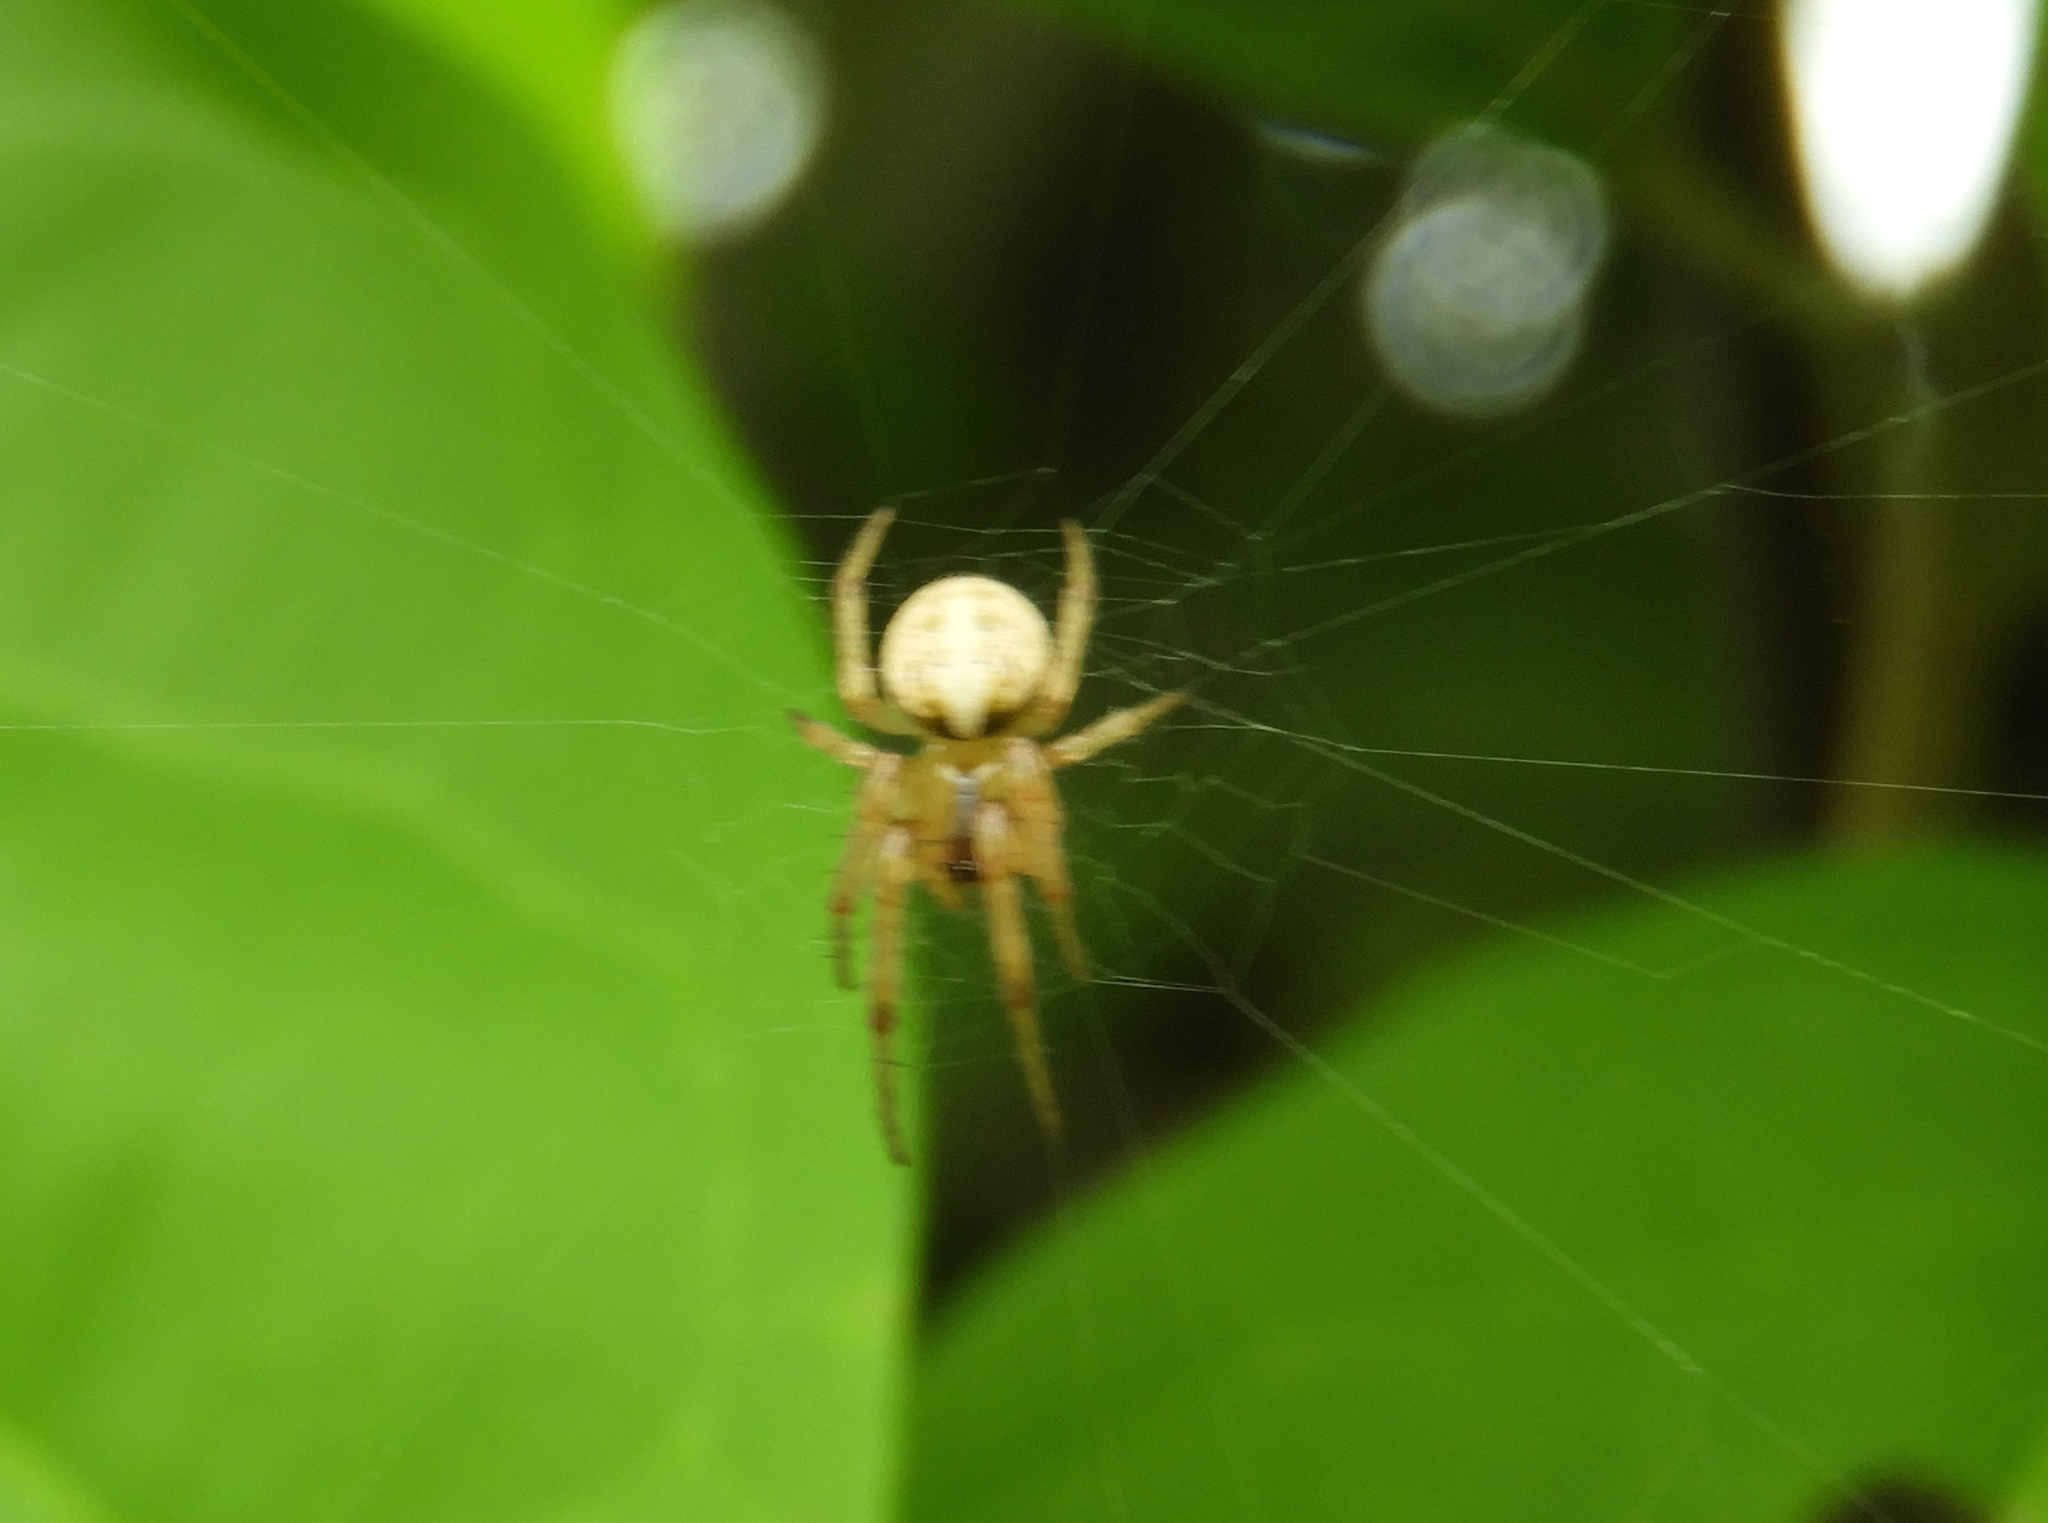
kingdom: Animalia
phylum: Arthropoda
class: Arachnida
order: Araneae
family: Araneidae
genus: Metazygia
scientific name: Metazygia
